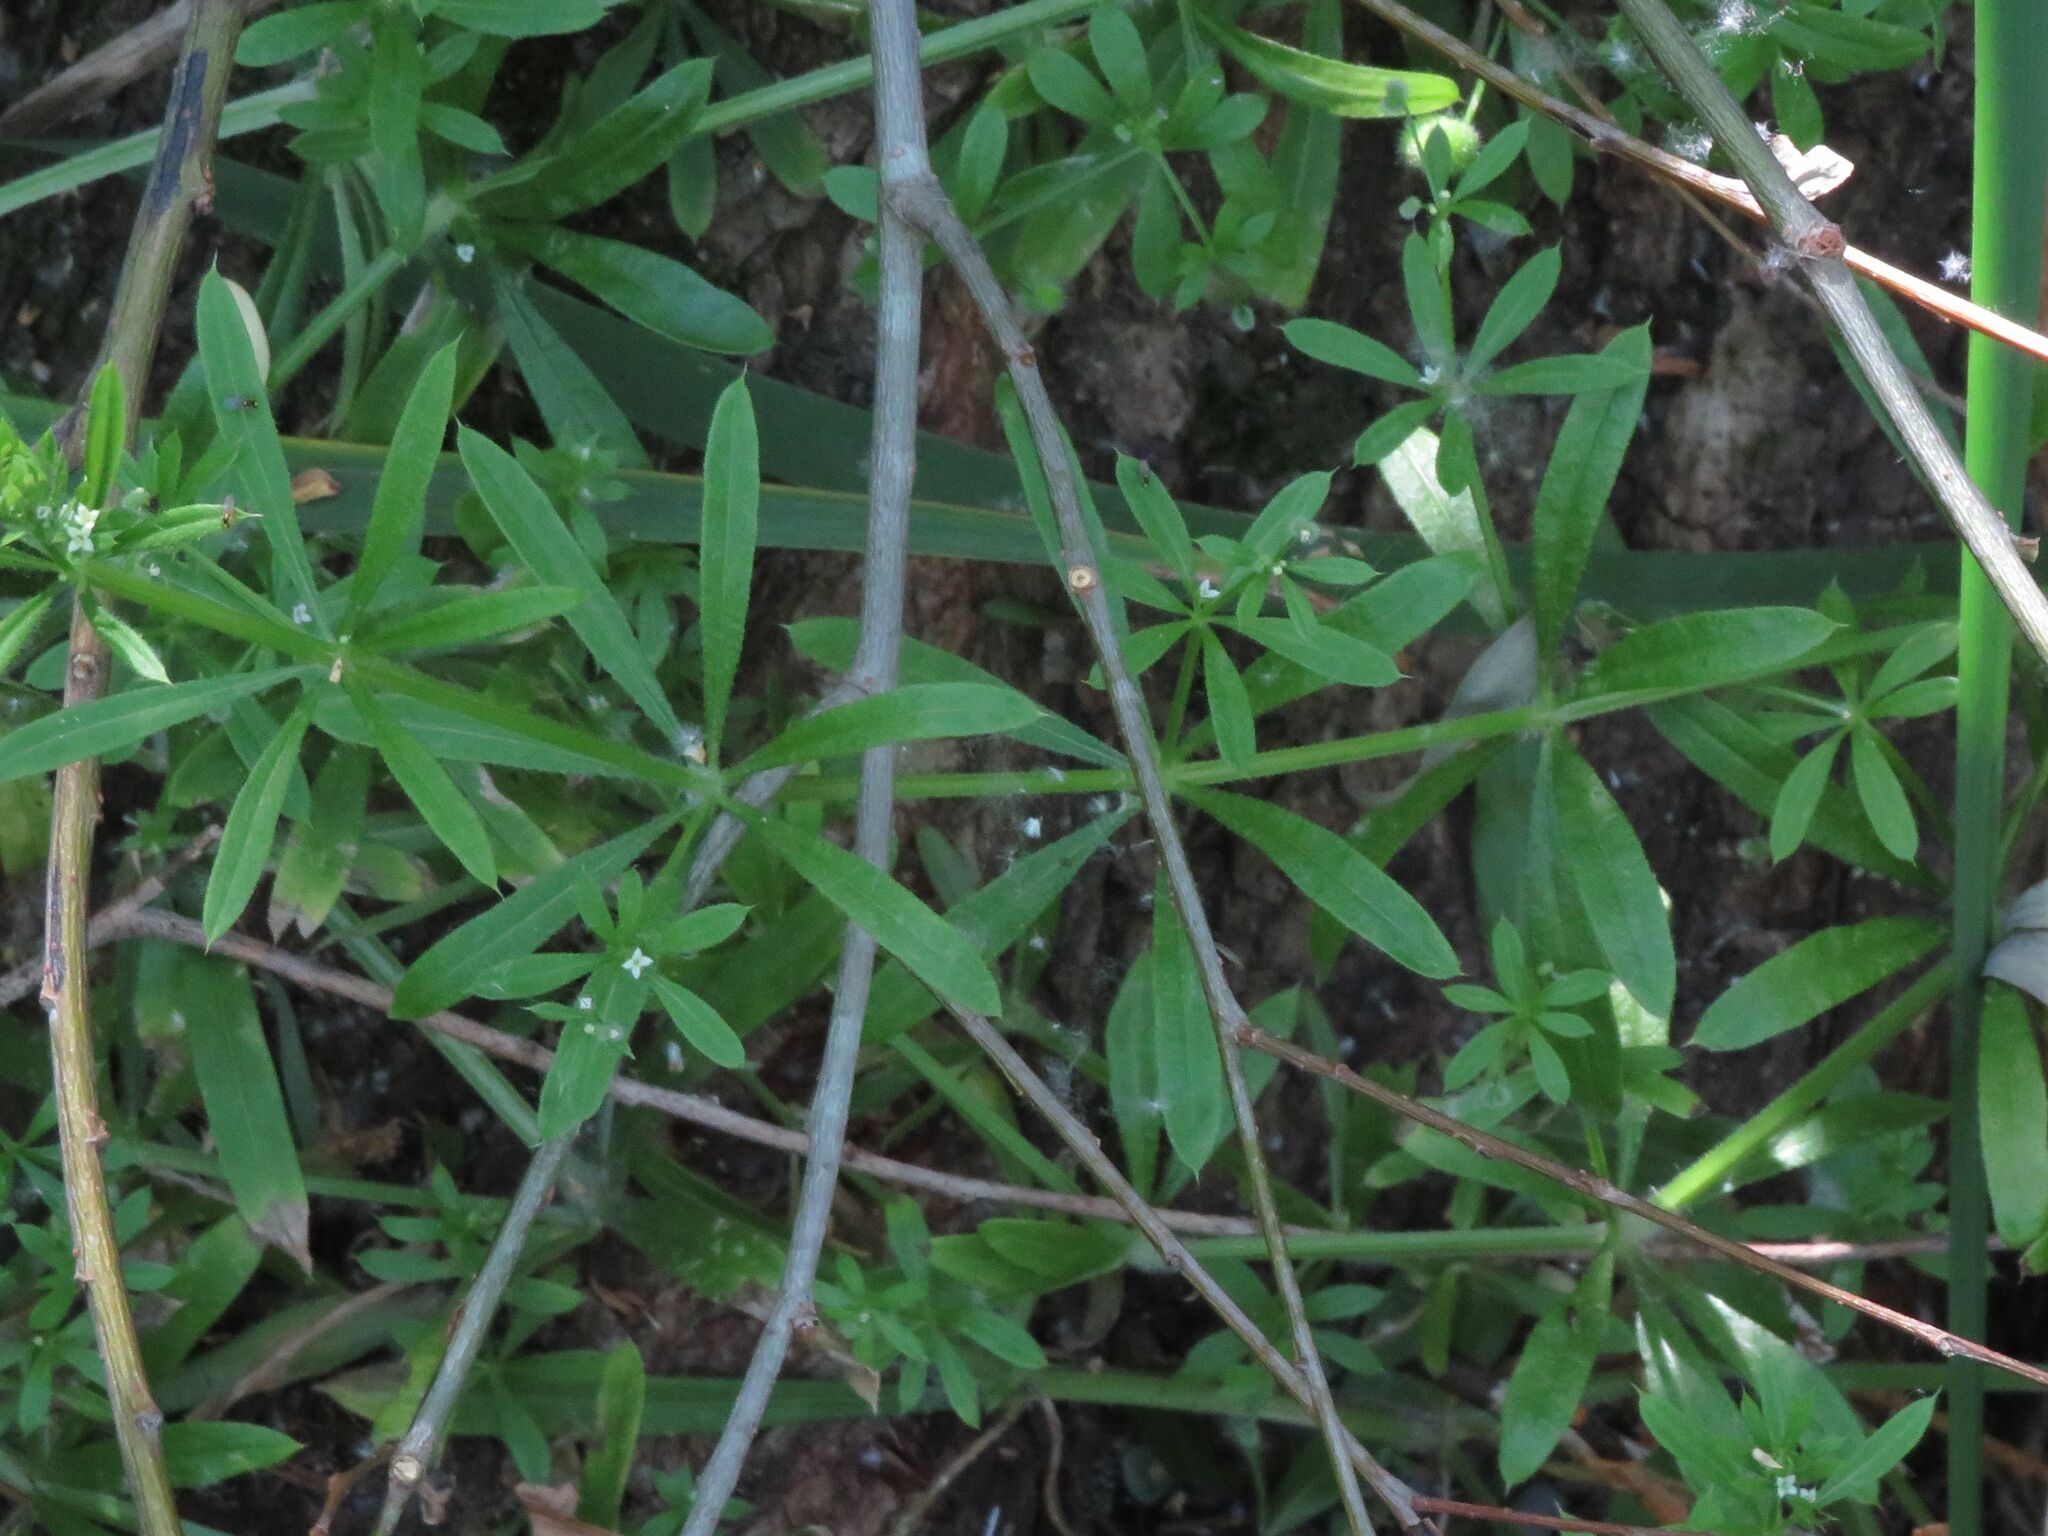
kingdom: Plantae
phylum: Tracheophyta
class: Magnoliopsida
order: Gentianales
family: Rubiaceae
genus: Galium
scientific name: Galium aparine
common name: Cleavers
